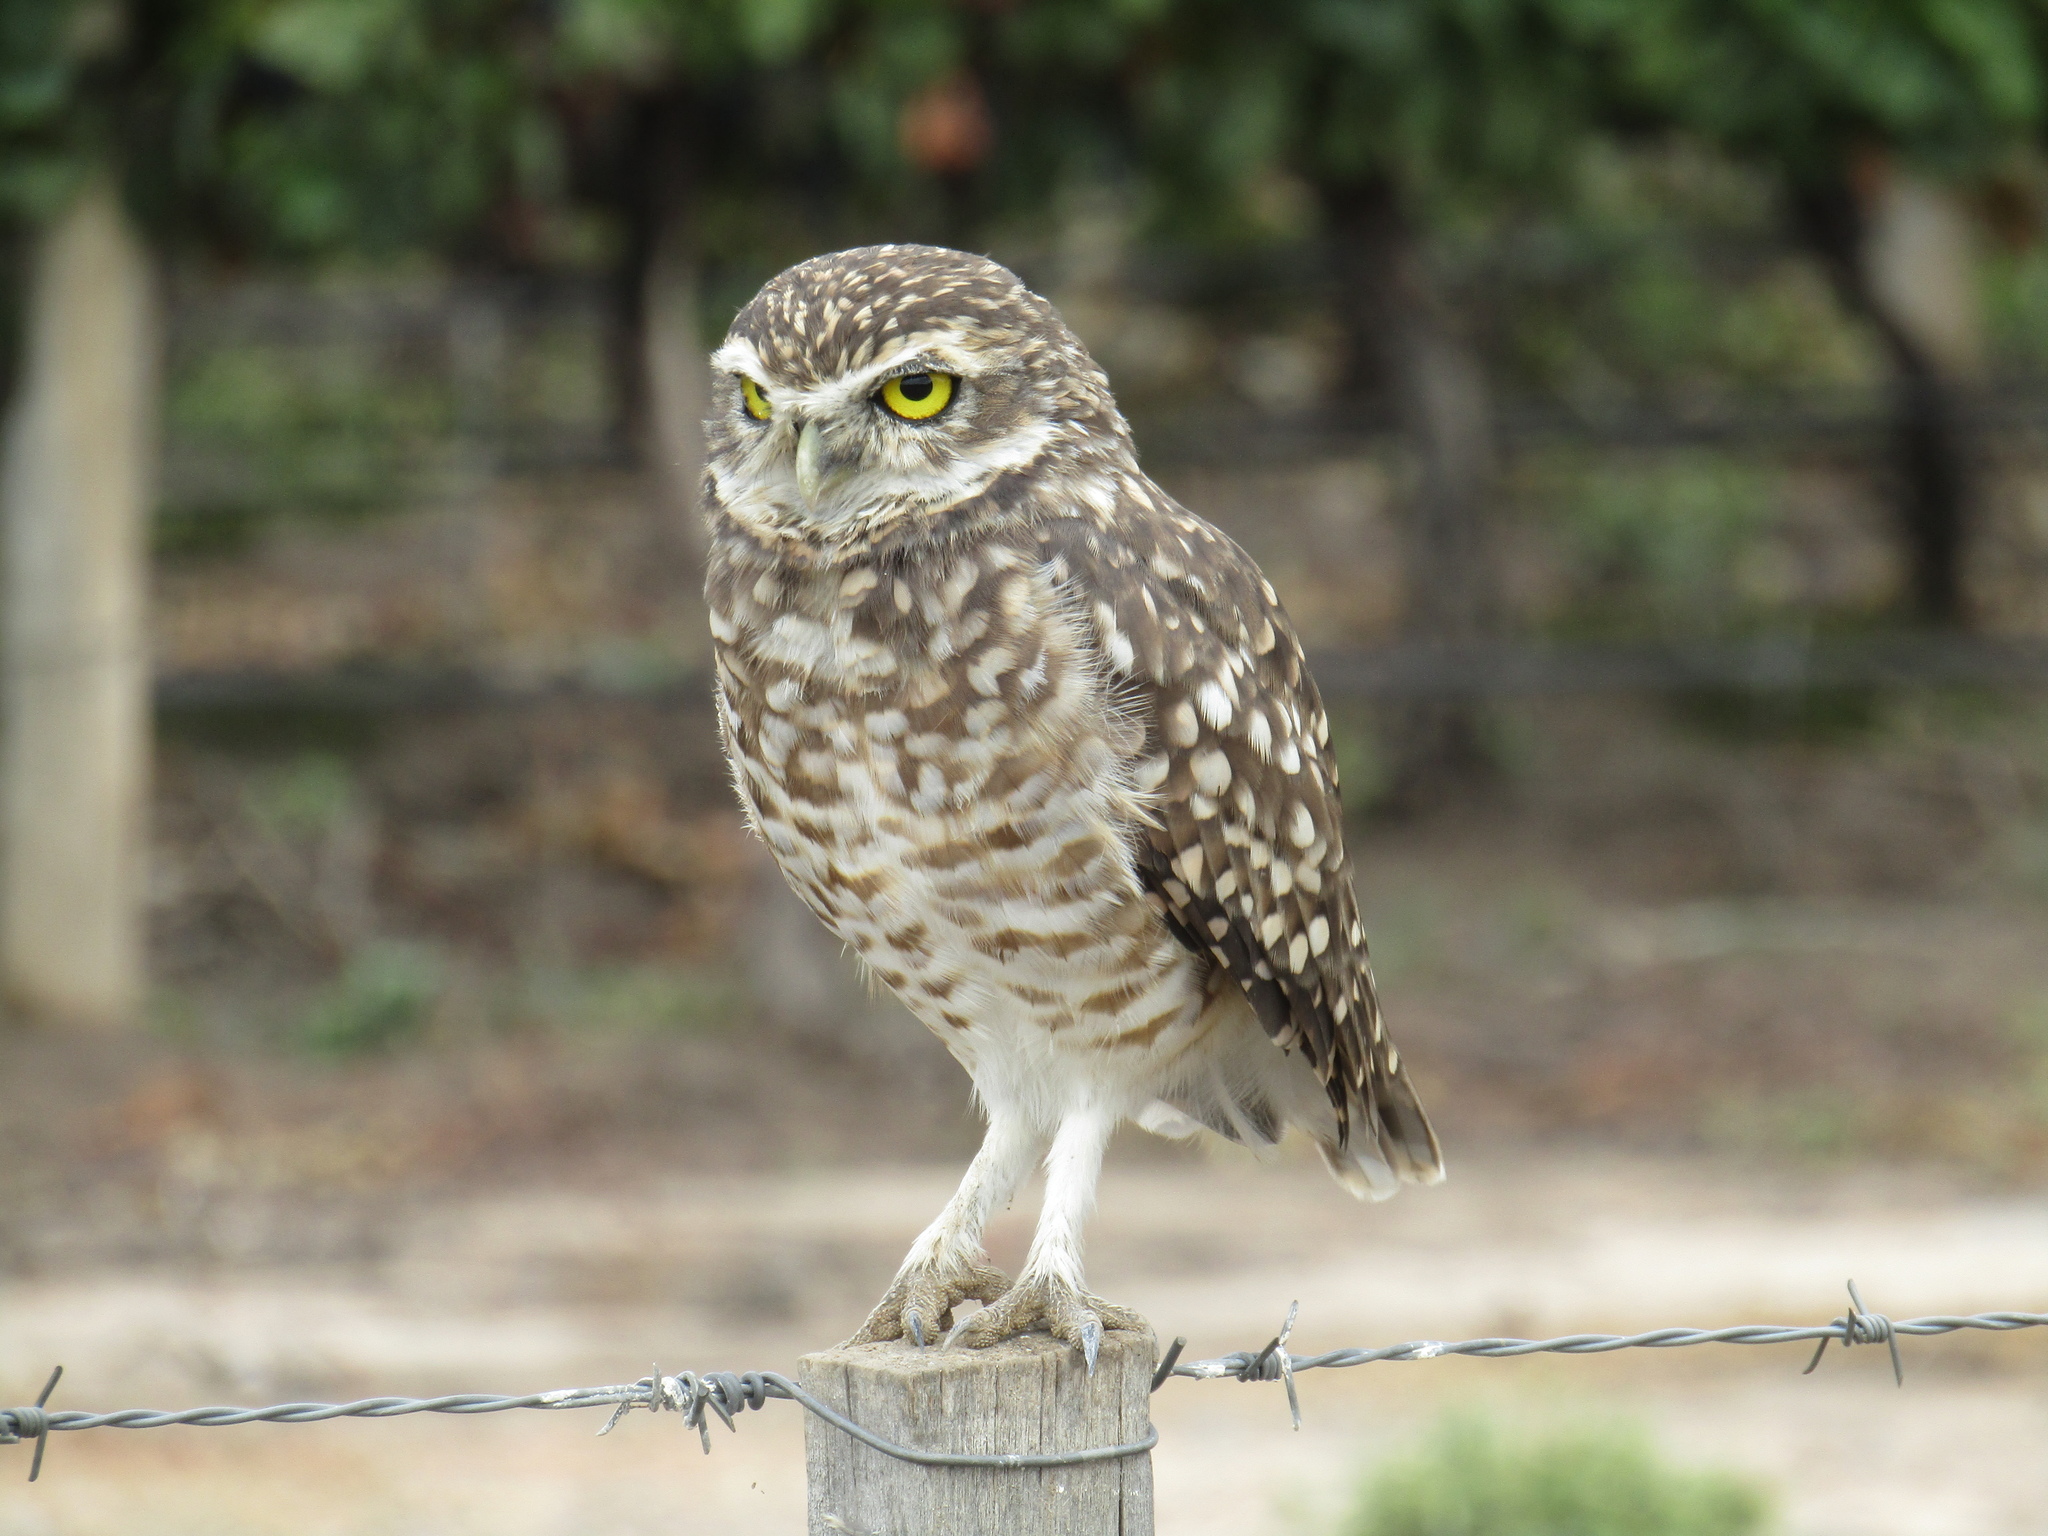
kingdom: Animalia
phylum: Chordata
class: Aves
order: Strigiformes
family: Strigidae
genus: Athene
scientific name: Athene cunicularia
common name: Burrowing owl
